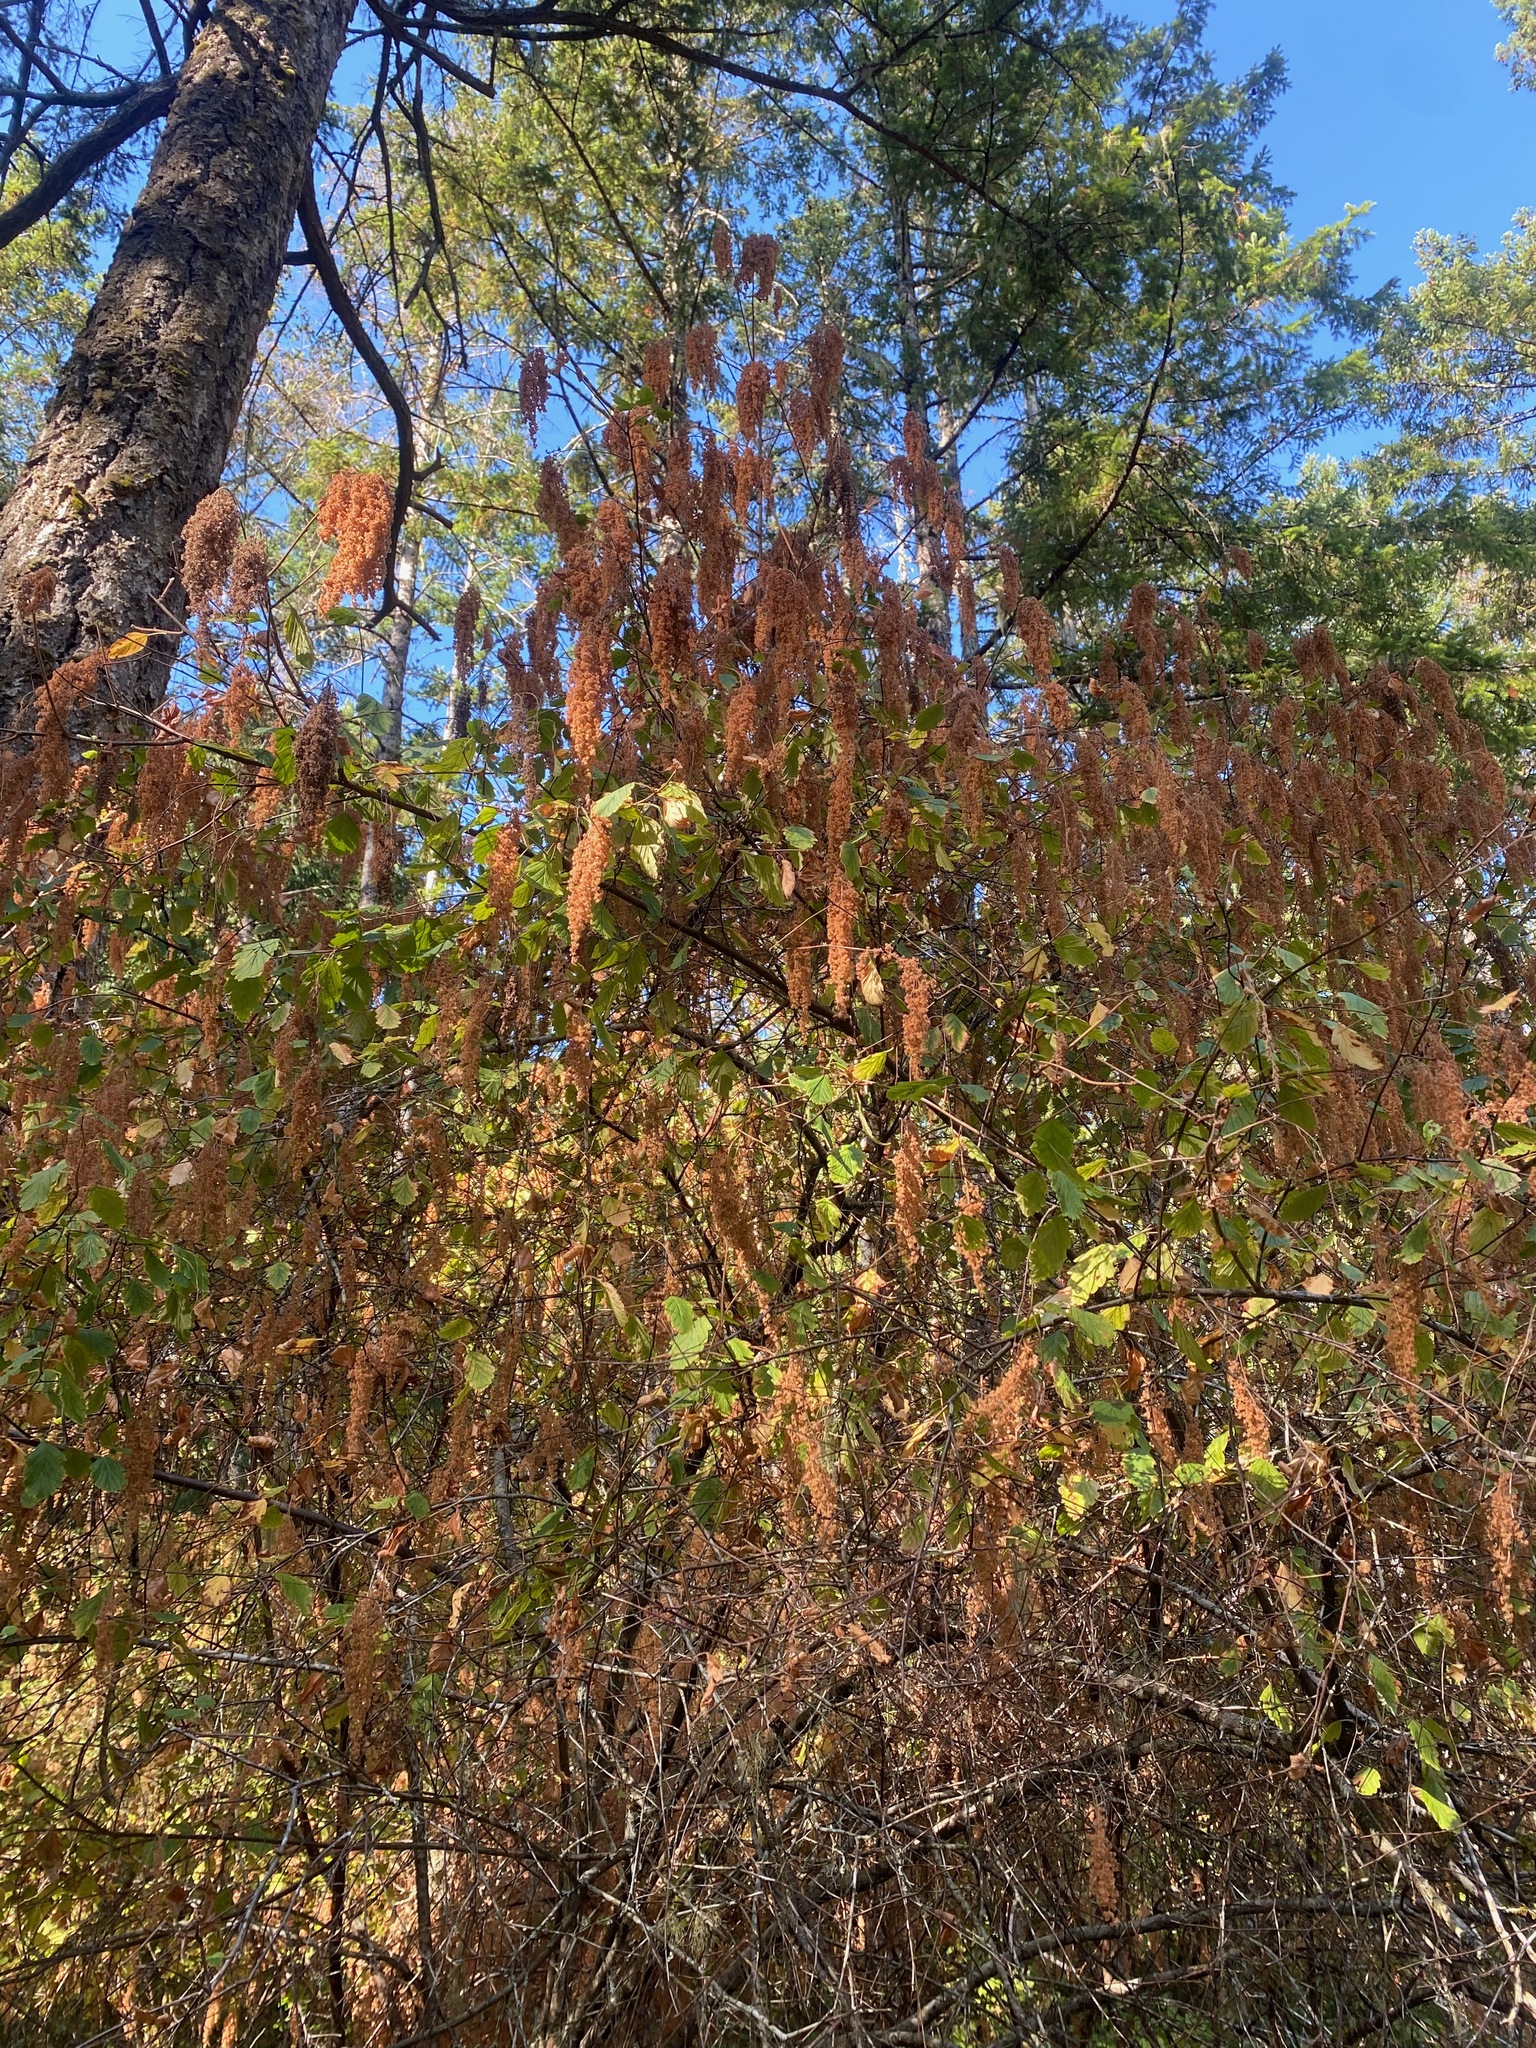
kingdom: Plantae
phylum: Tracheophyta
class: Magnoliopsida
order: Rosales
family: Rosaceae
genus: Holodiscus
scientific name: Holodiscus discolor
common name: Oceanspray
